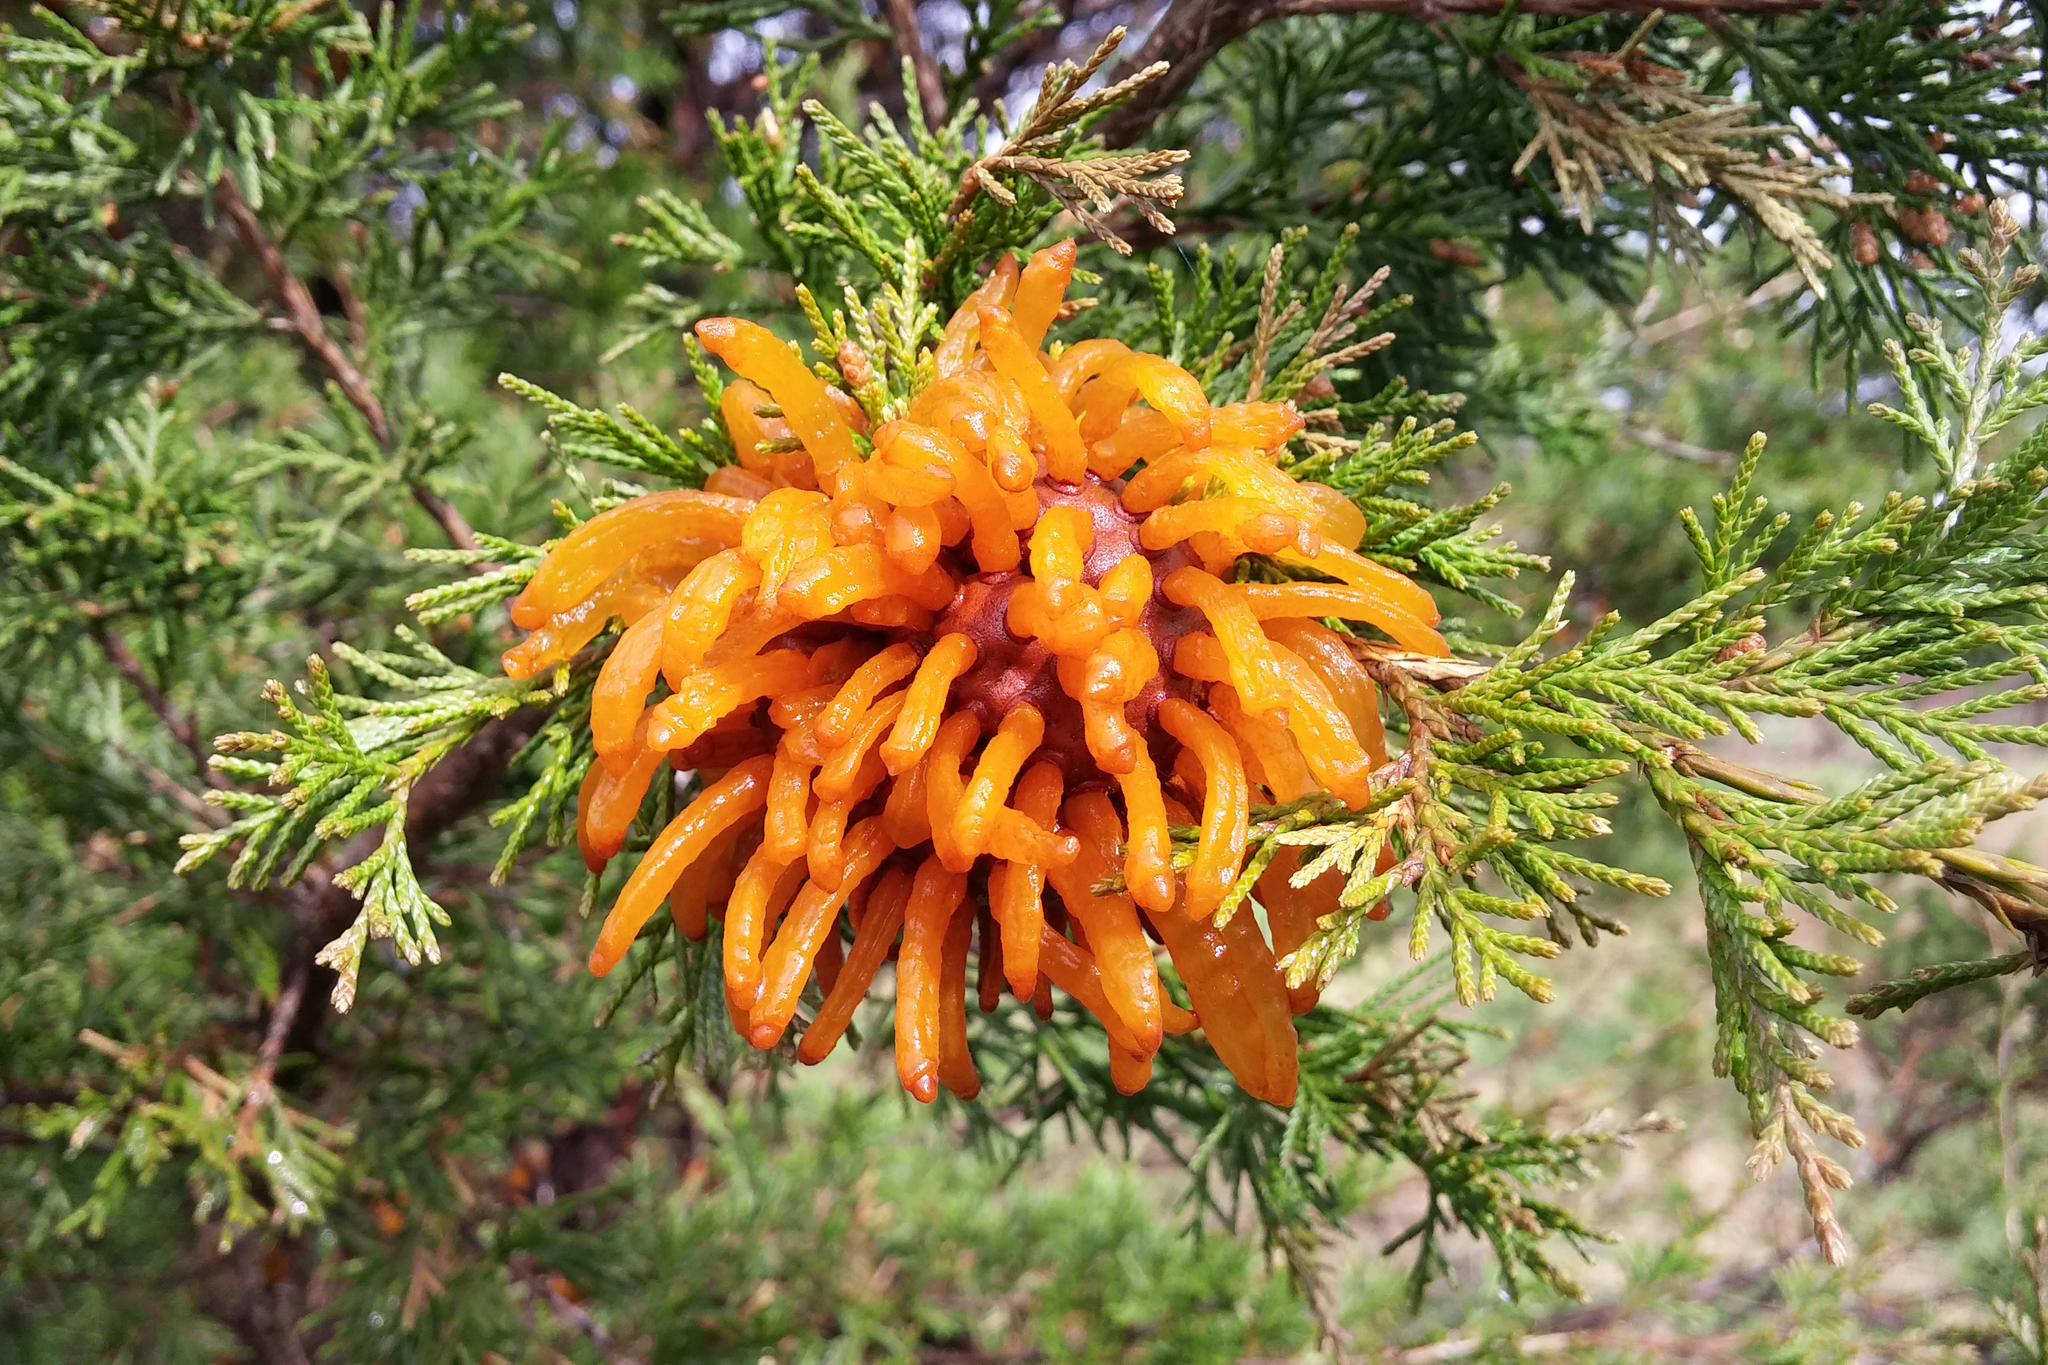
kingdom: Fungi
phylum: Basidiomycota
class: Pucciniomycetes
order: Pucciniales
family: Gymnosporangiaceae
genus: Gymnosporangium
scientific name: Gymnosporangium juniperi-virginianae
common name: Juniper-apple rust
